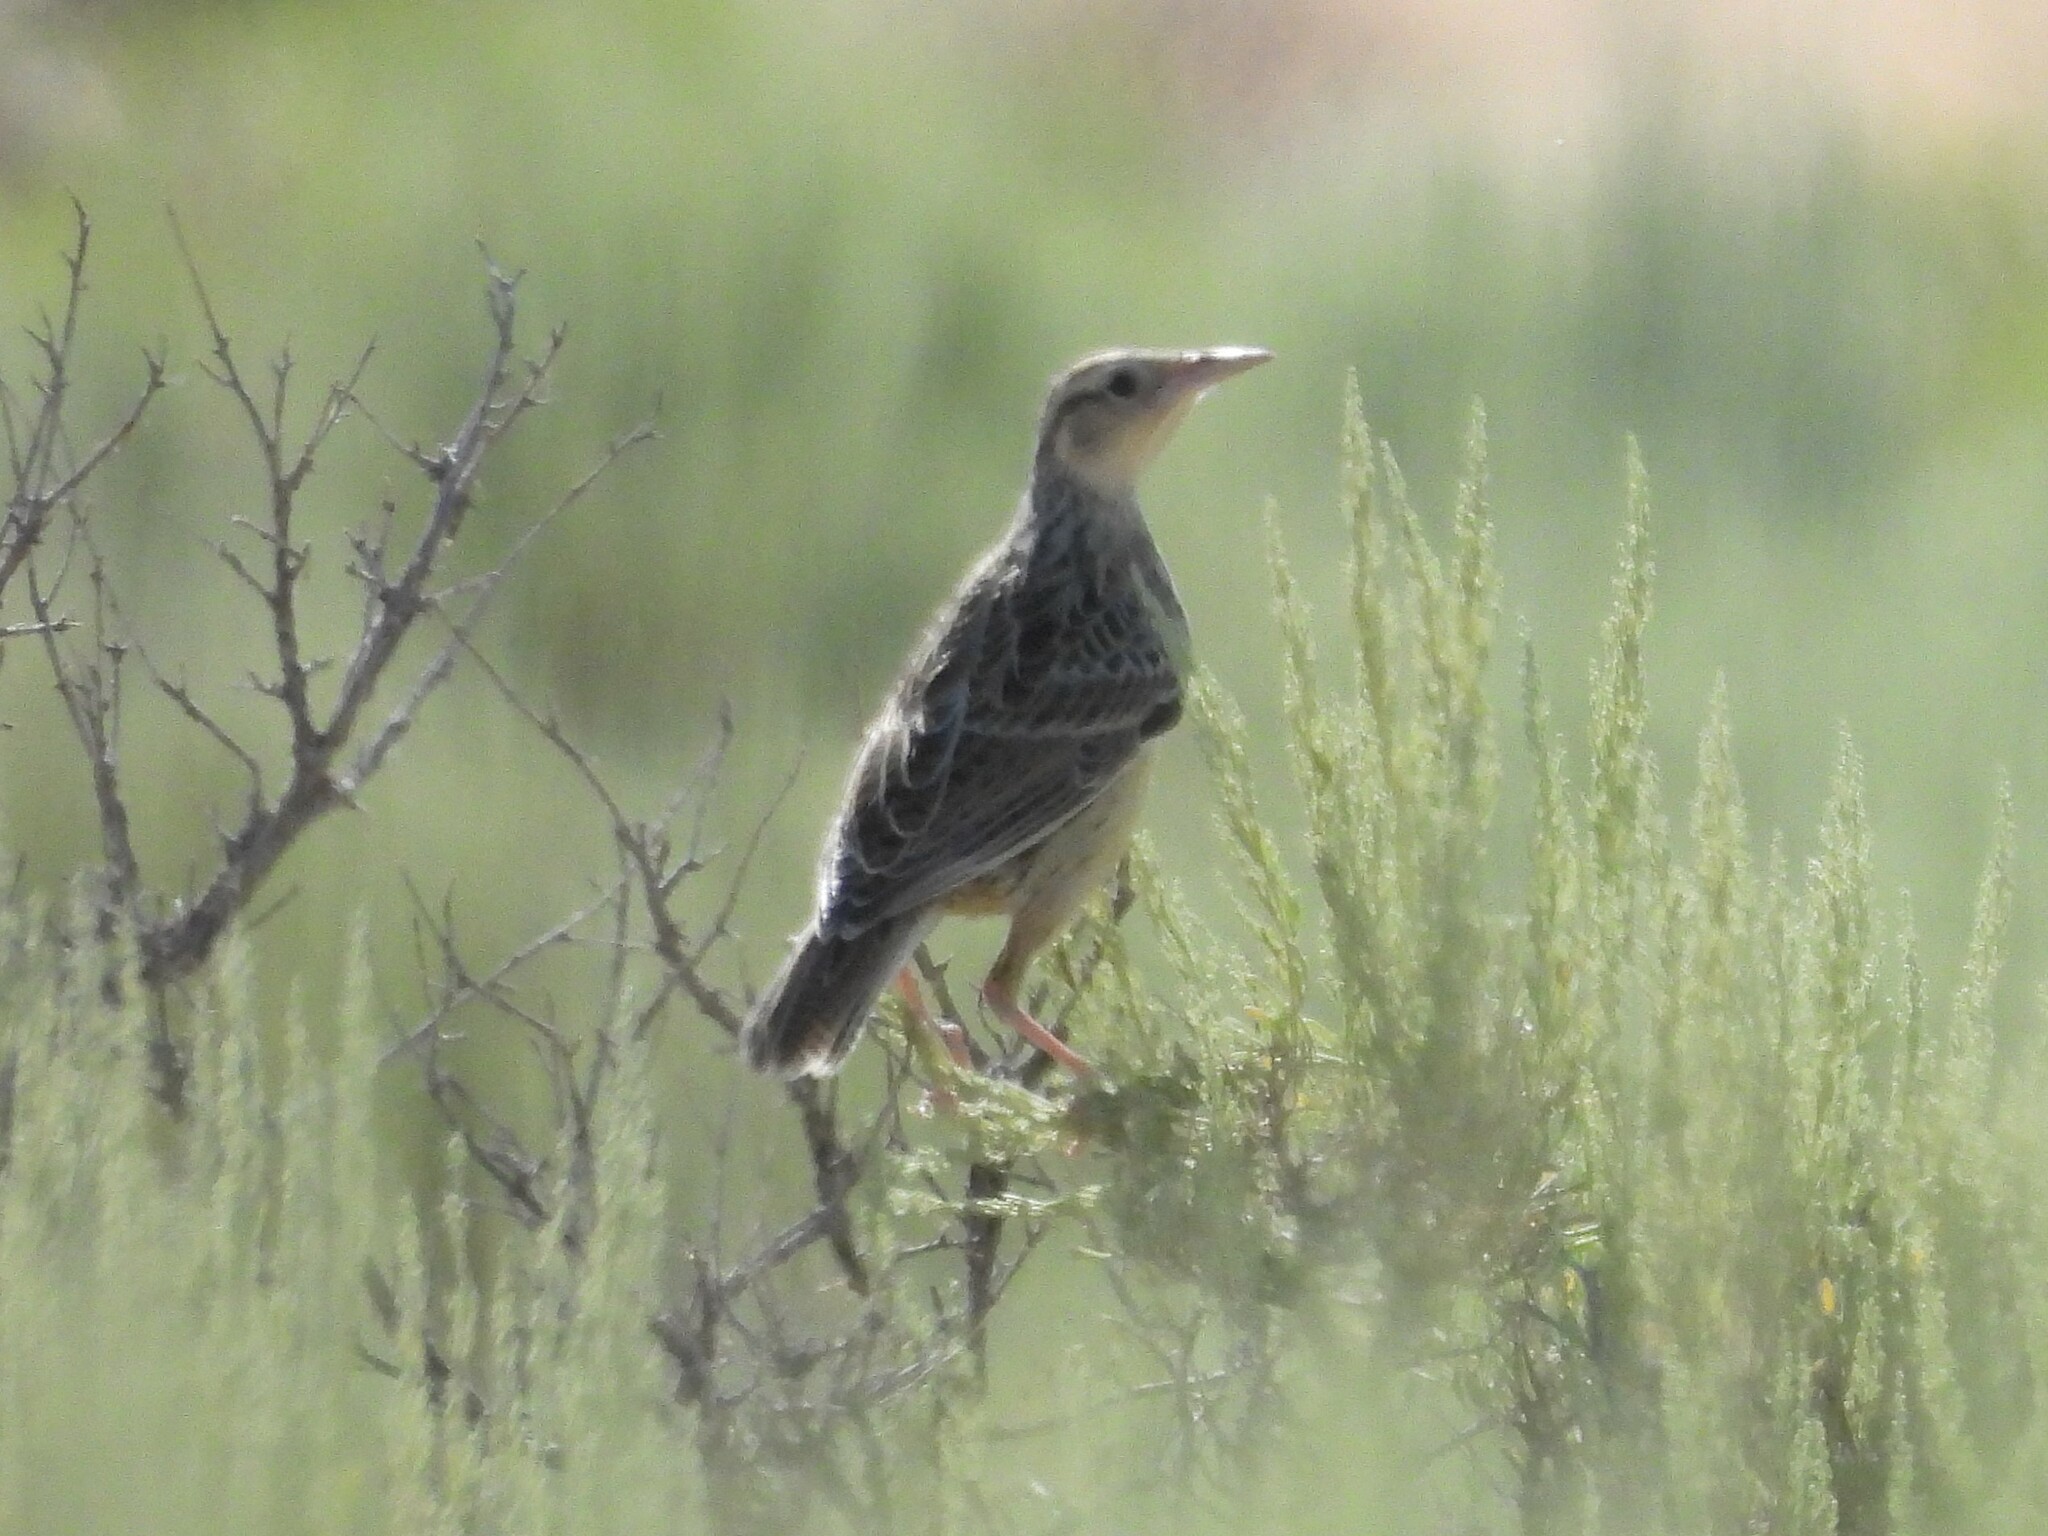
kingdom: Animalia
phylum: Chordata
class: Aves
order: Passeriformes
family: Icteridae
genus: Sturnella
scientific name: Sturnella neglecta
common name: Western meadowlark
